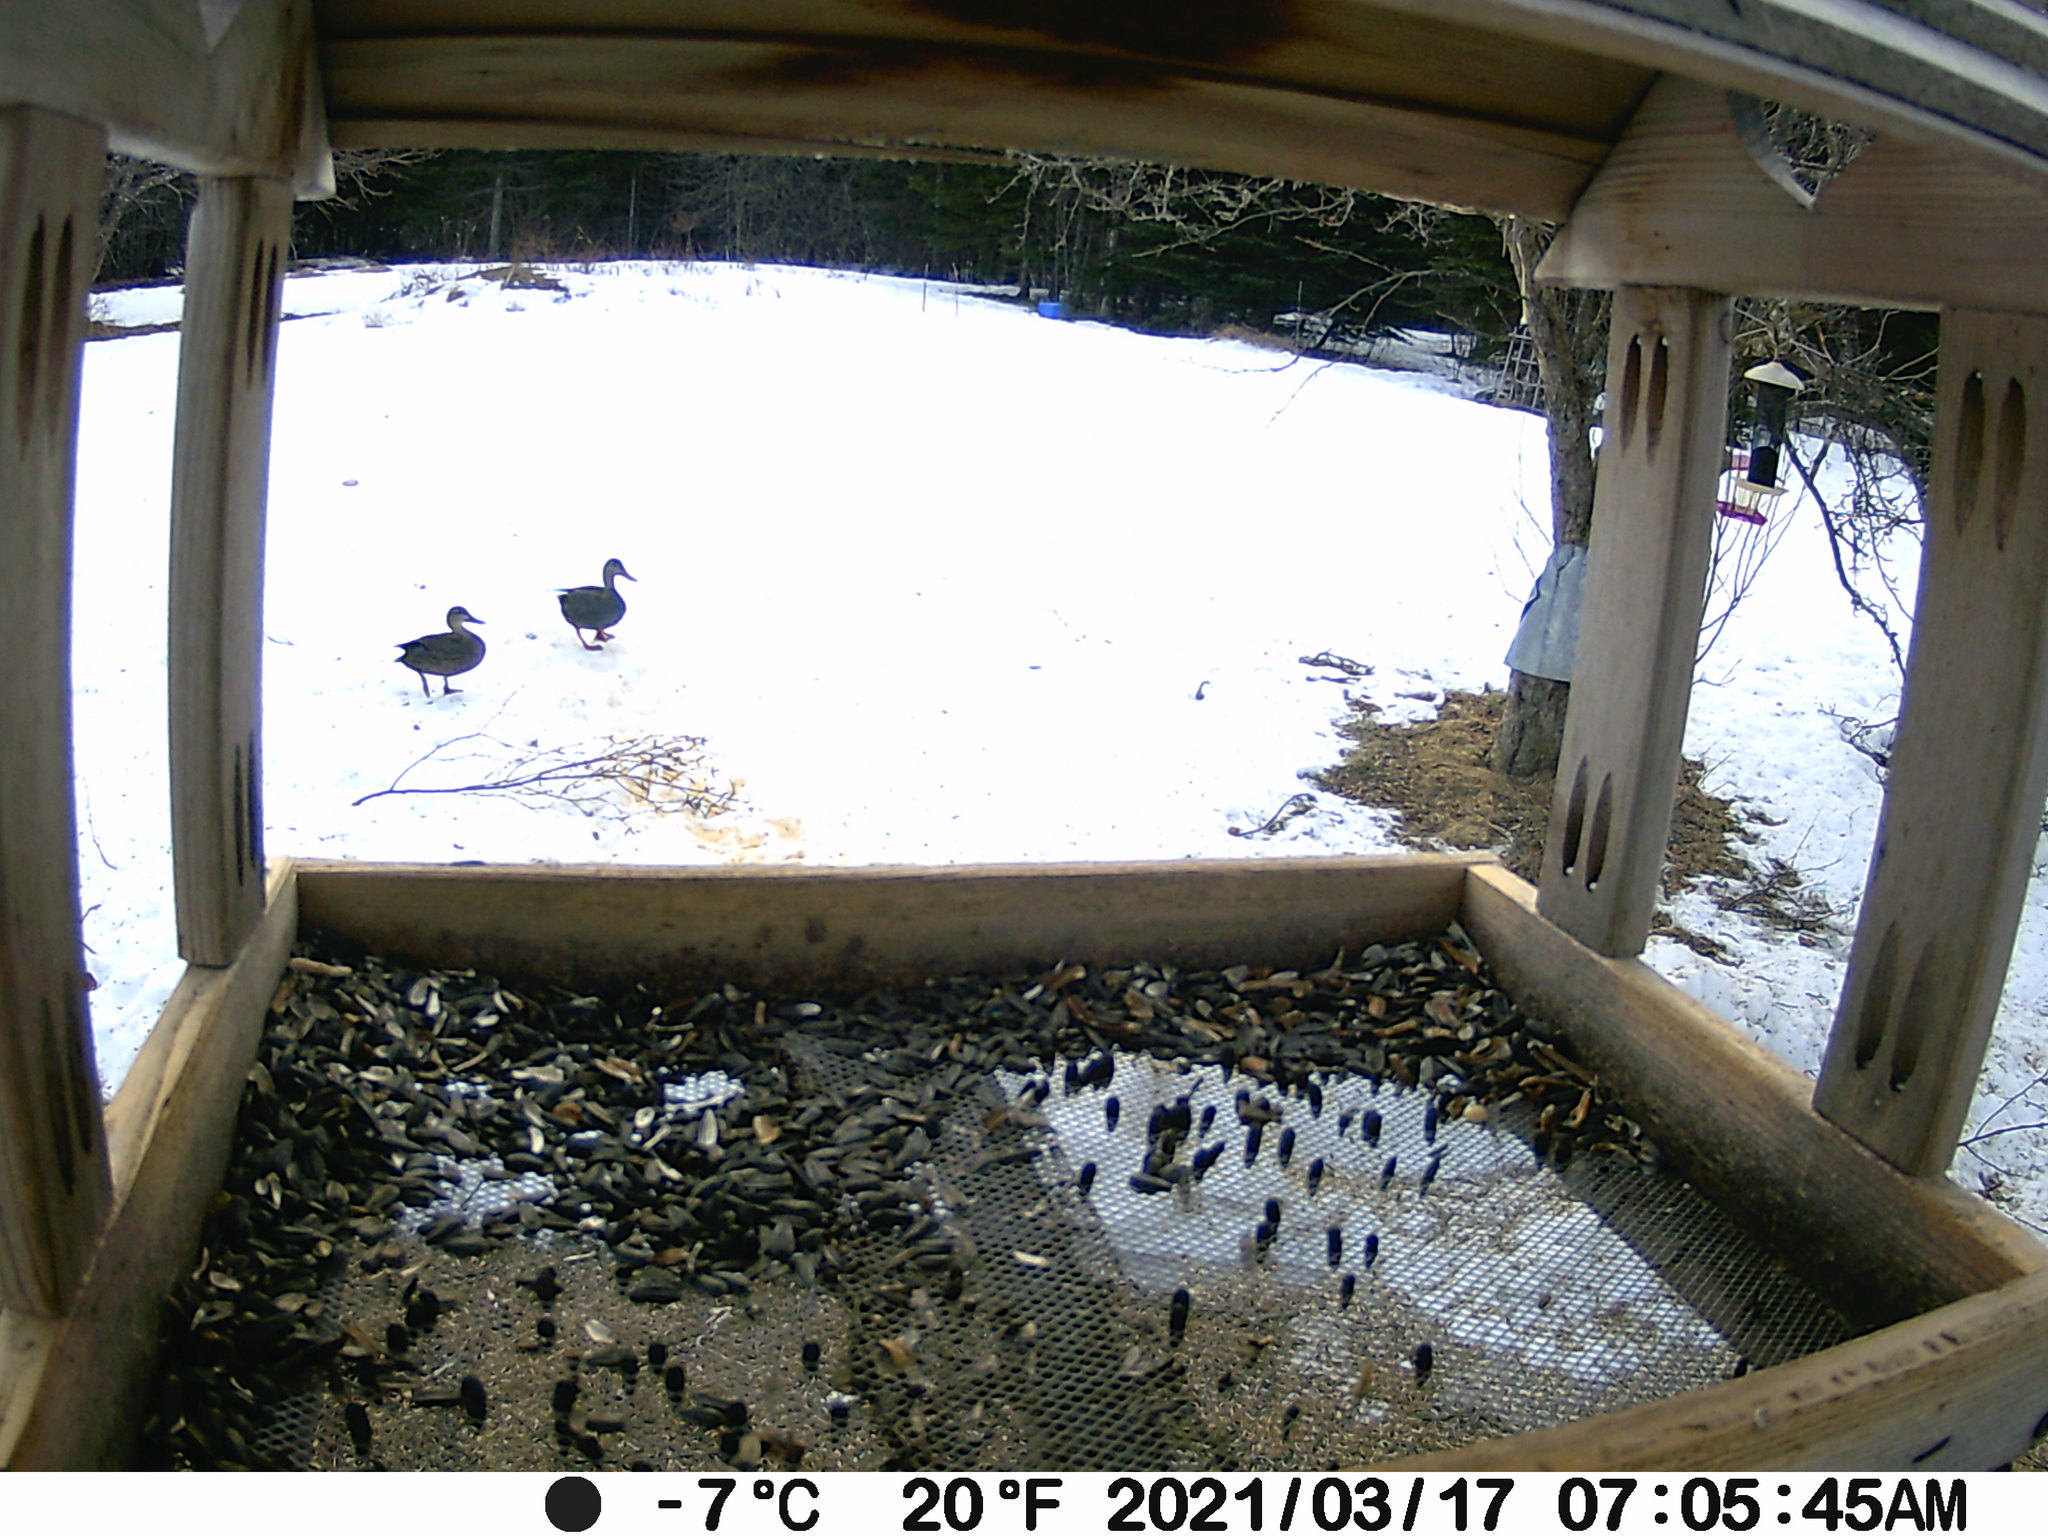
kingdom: Animalia
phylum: Chordata
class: Aves
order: Anseriformes
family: Anatidae
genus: Anas
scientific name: Anas rubripes
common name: American black duck
